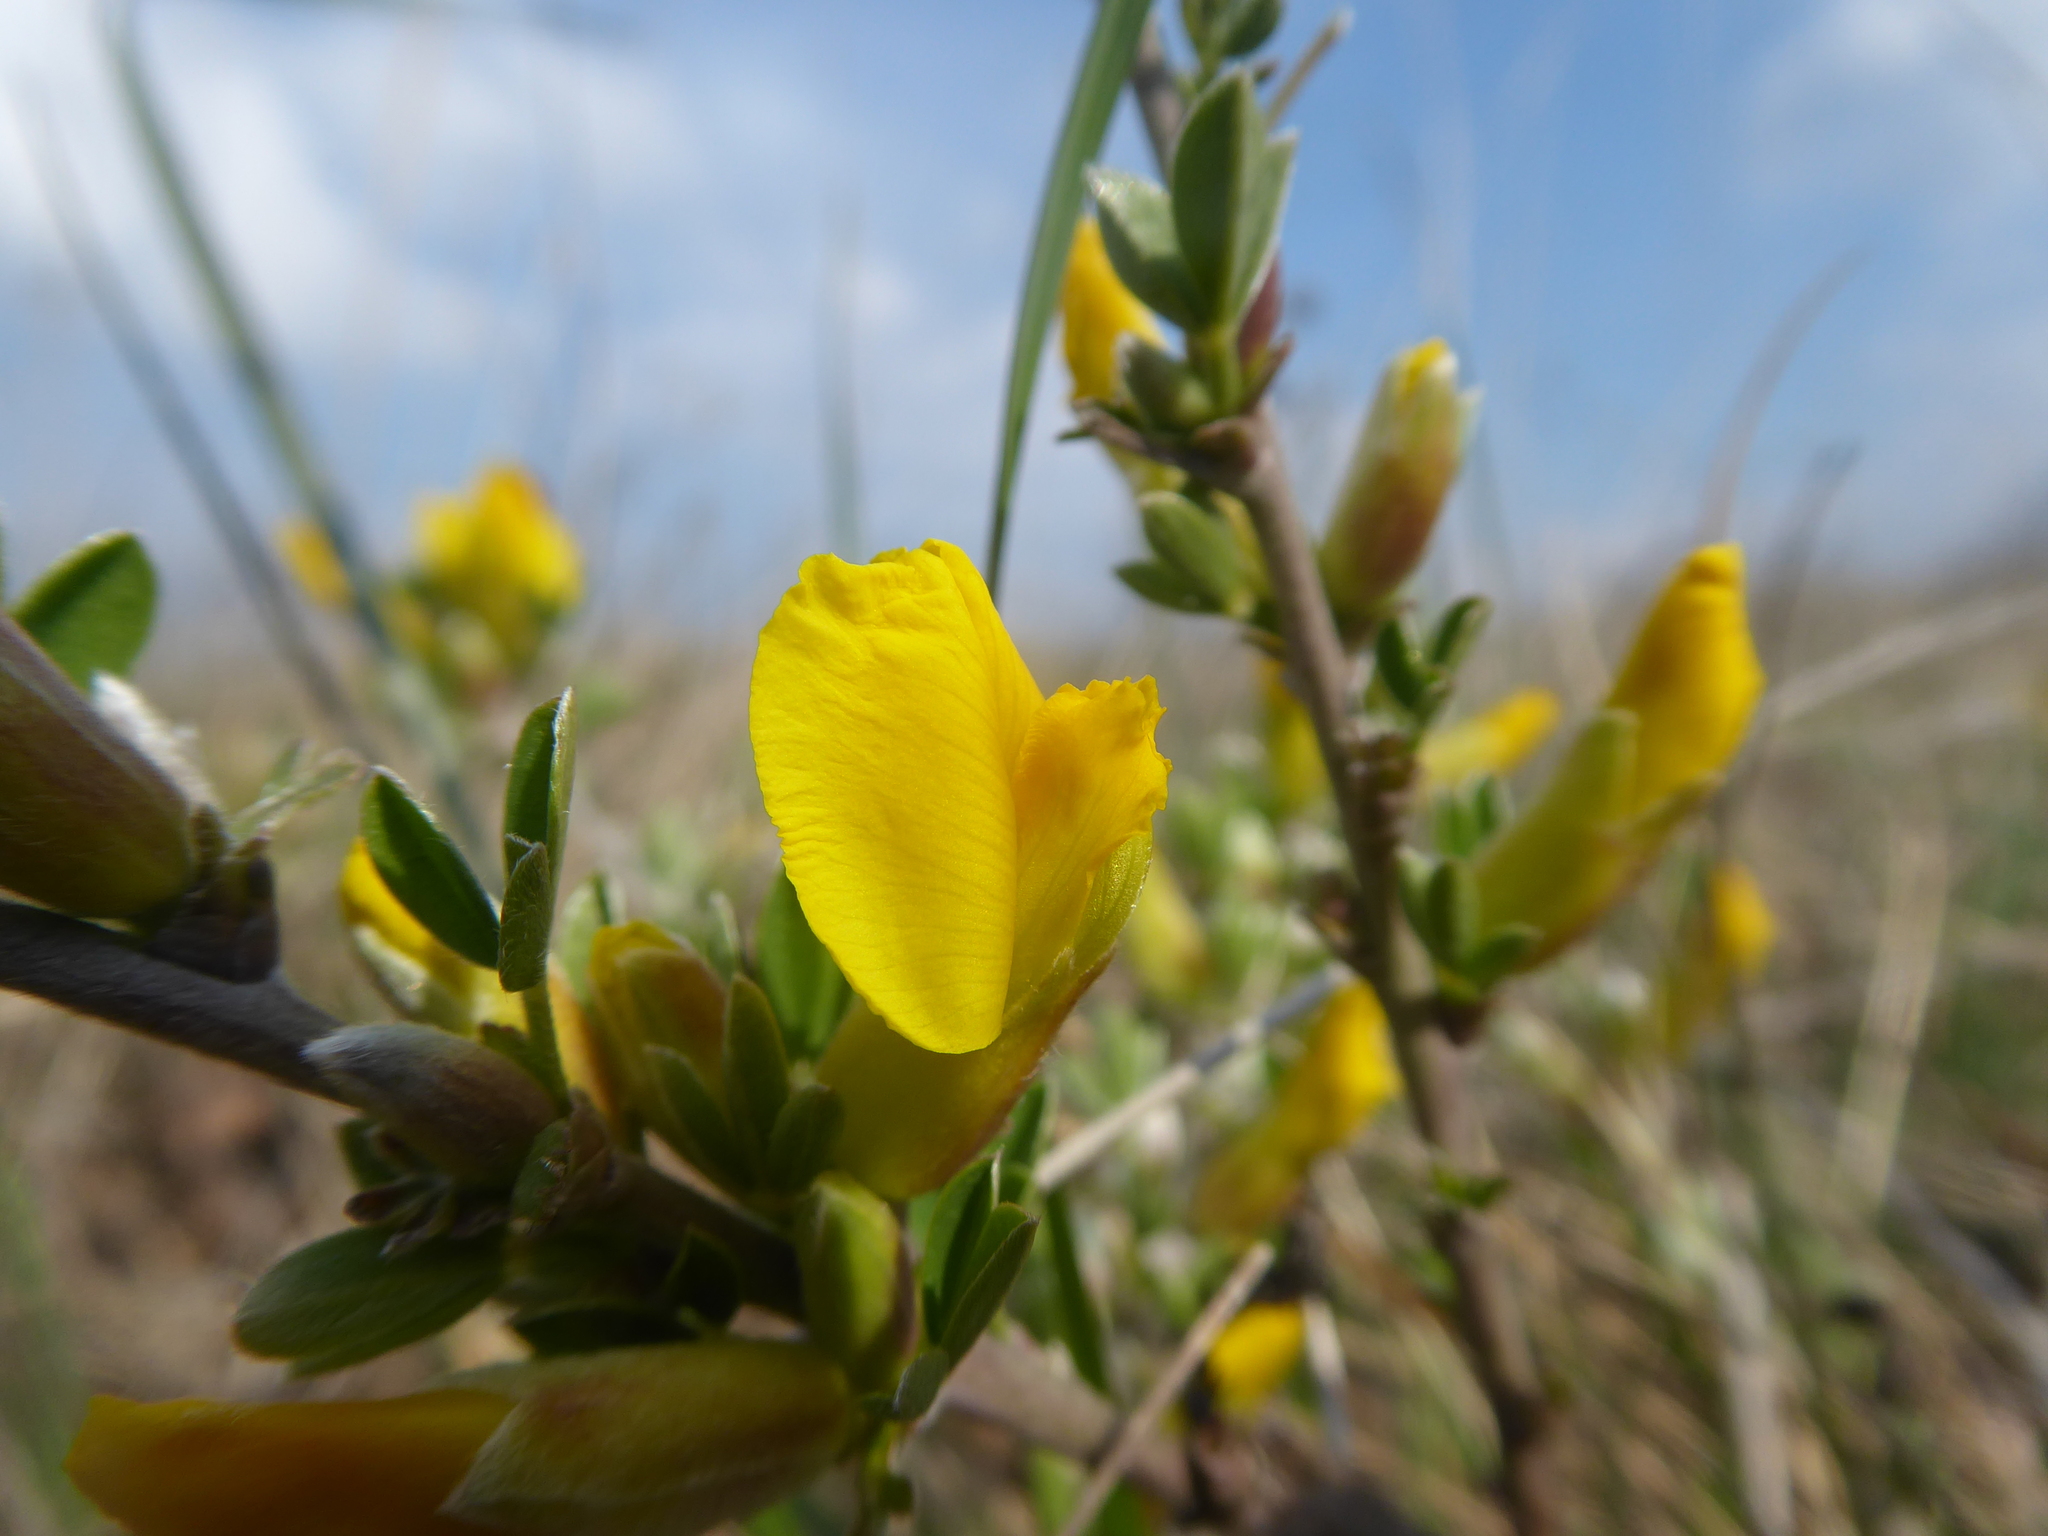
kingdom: Plantae
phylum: Tracheophyta
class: Magnoliopsida
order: Fabales
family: Fabaceae
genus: Chamaecytisus
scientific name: Chamaecytisus ratisbonensis
